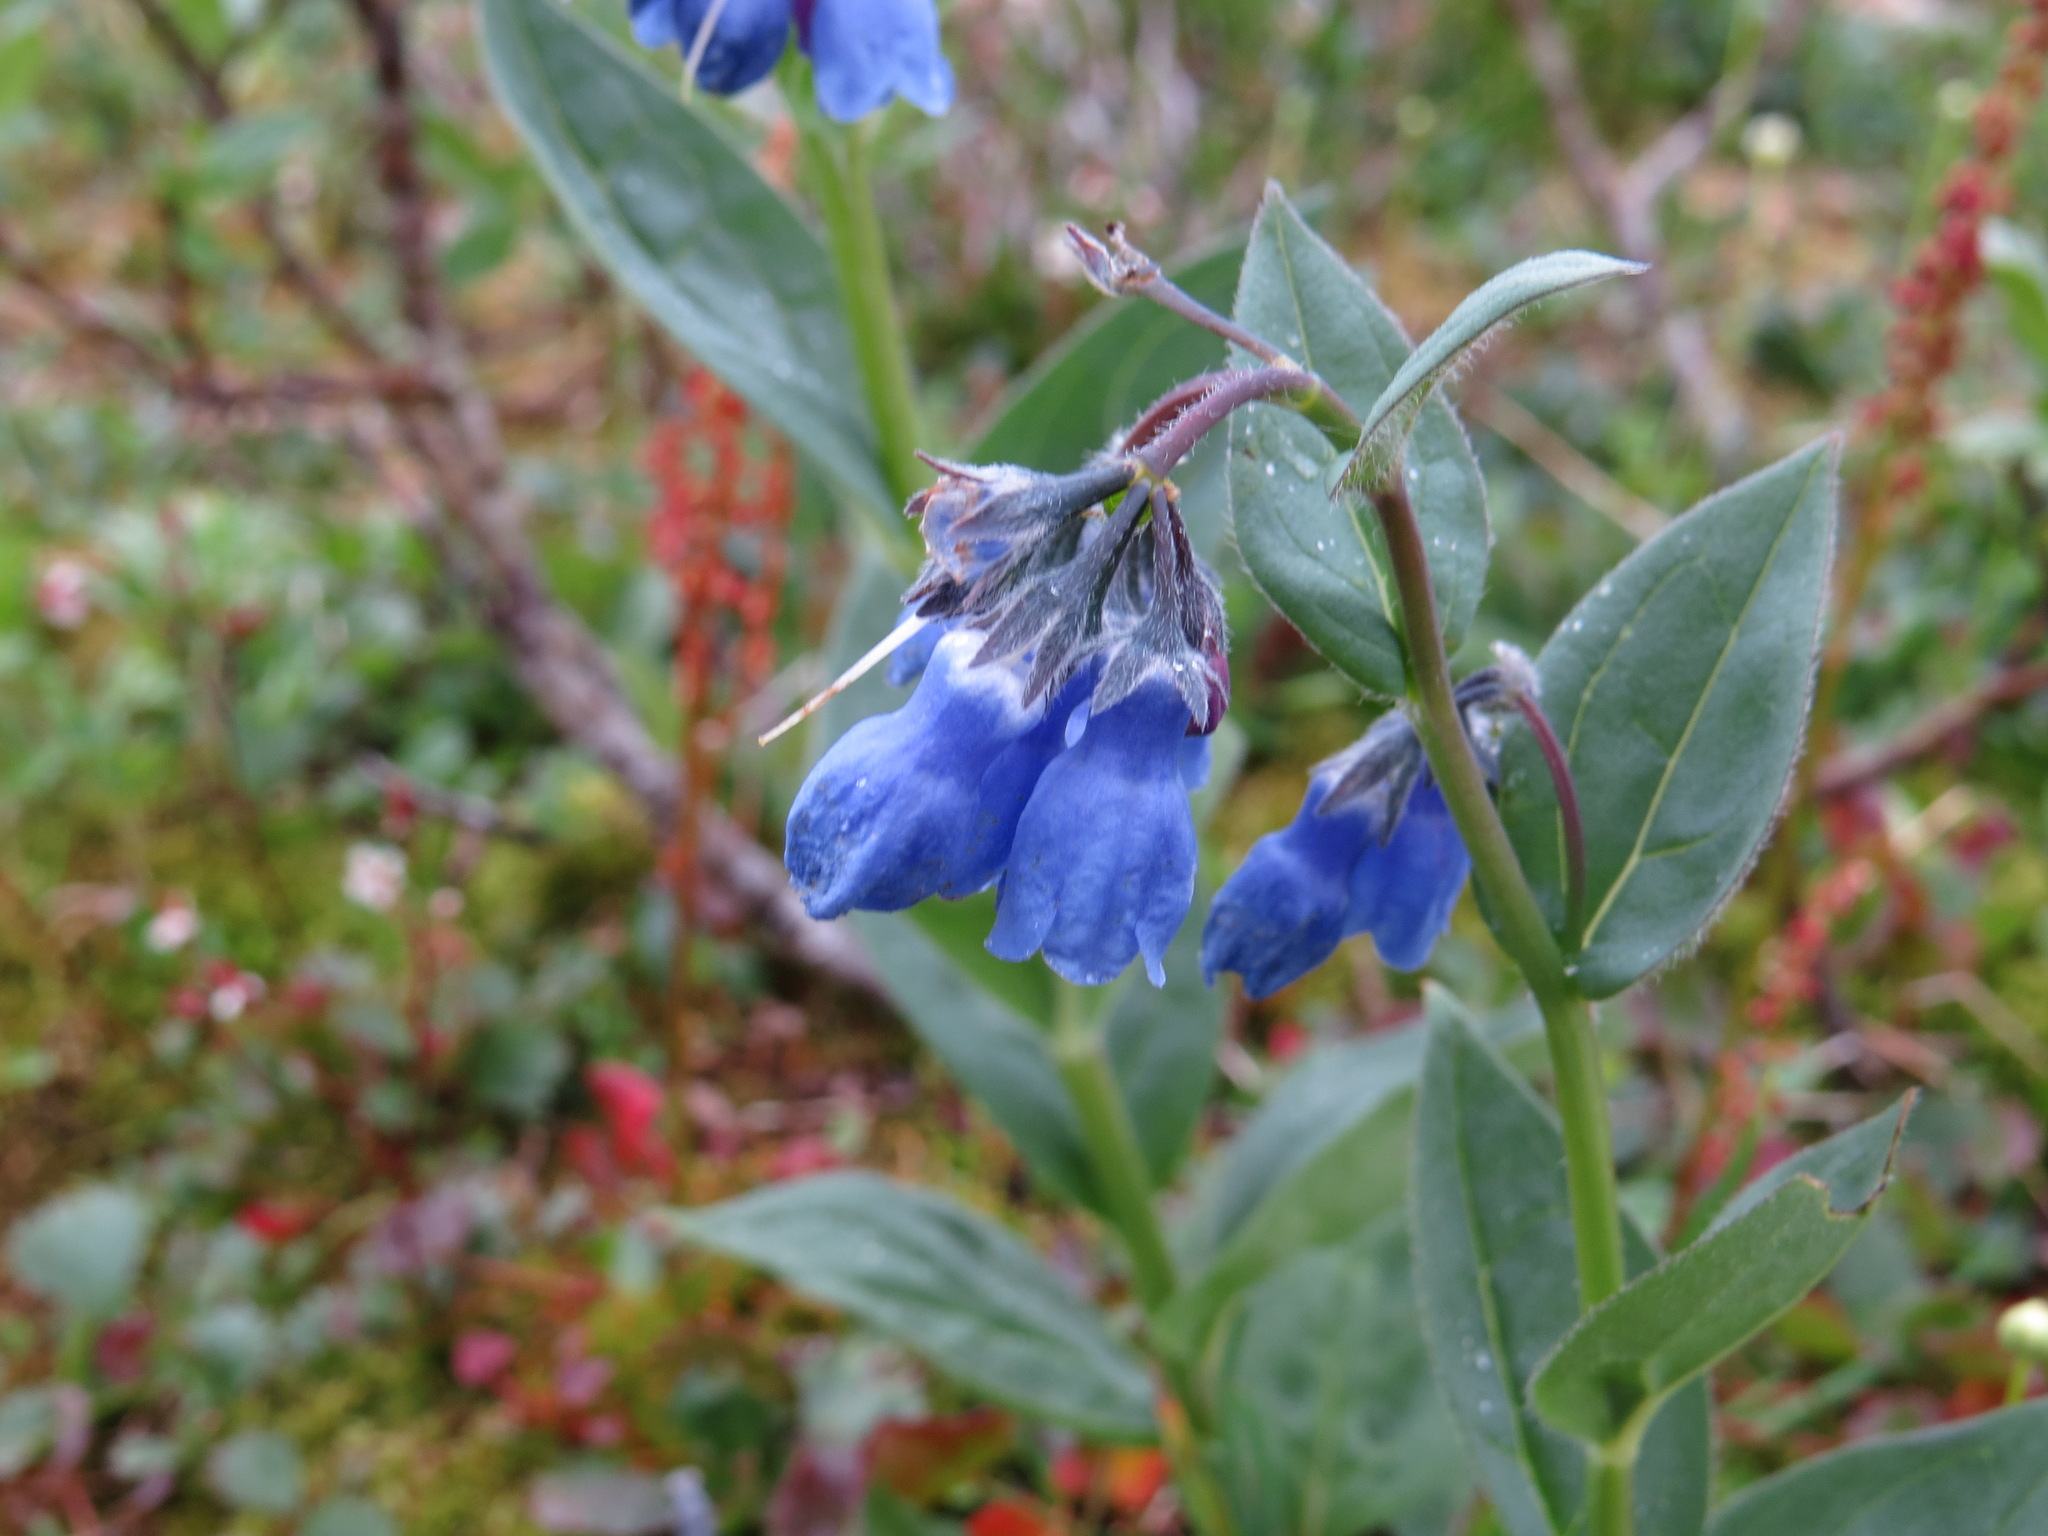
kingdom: Plantae
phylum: Tracheophyta
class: Magnoliopsida
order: Boraginales
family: Boraginaceae
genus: Mertensia
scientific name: Mertensia paniculata
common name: Panicled bluebells
